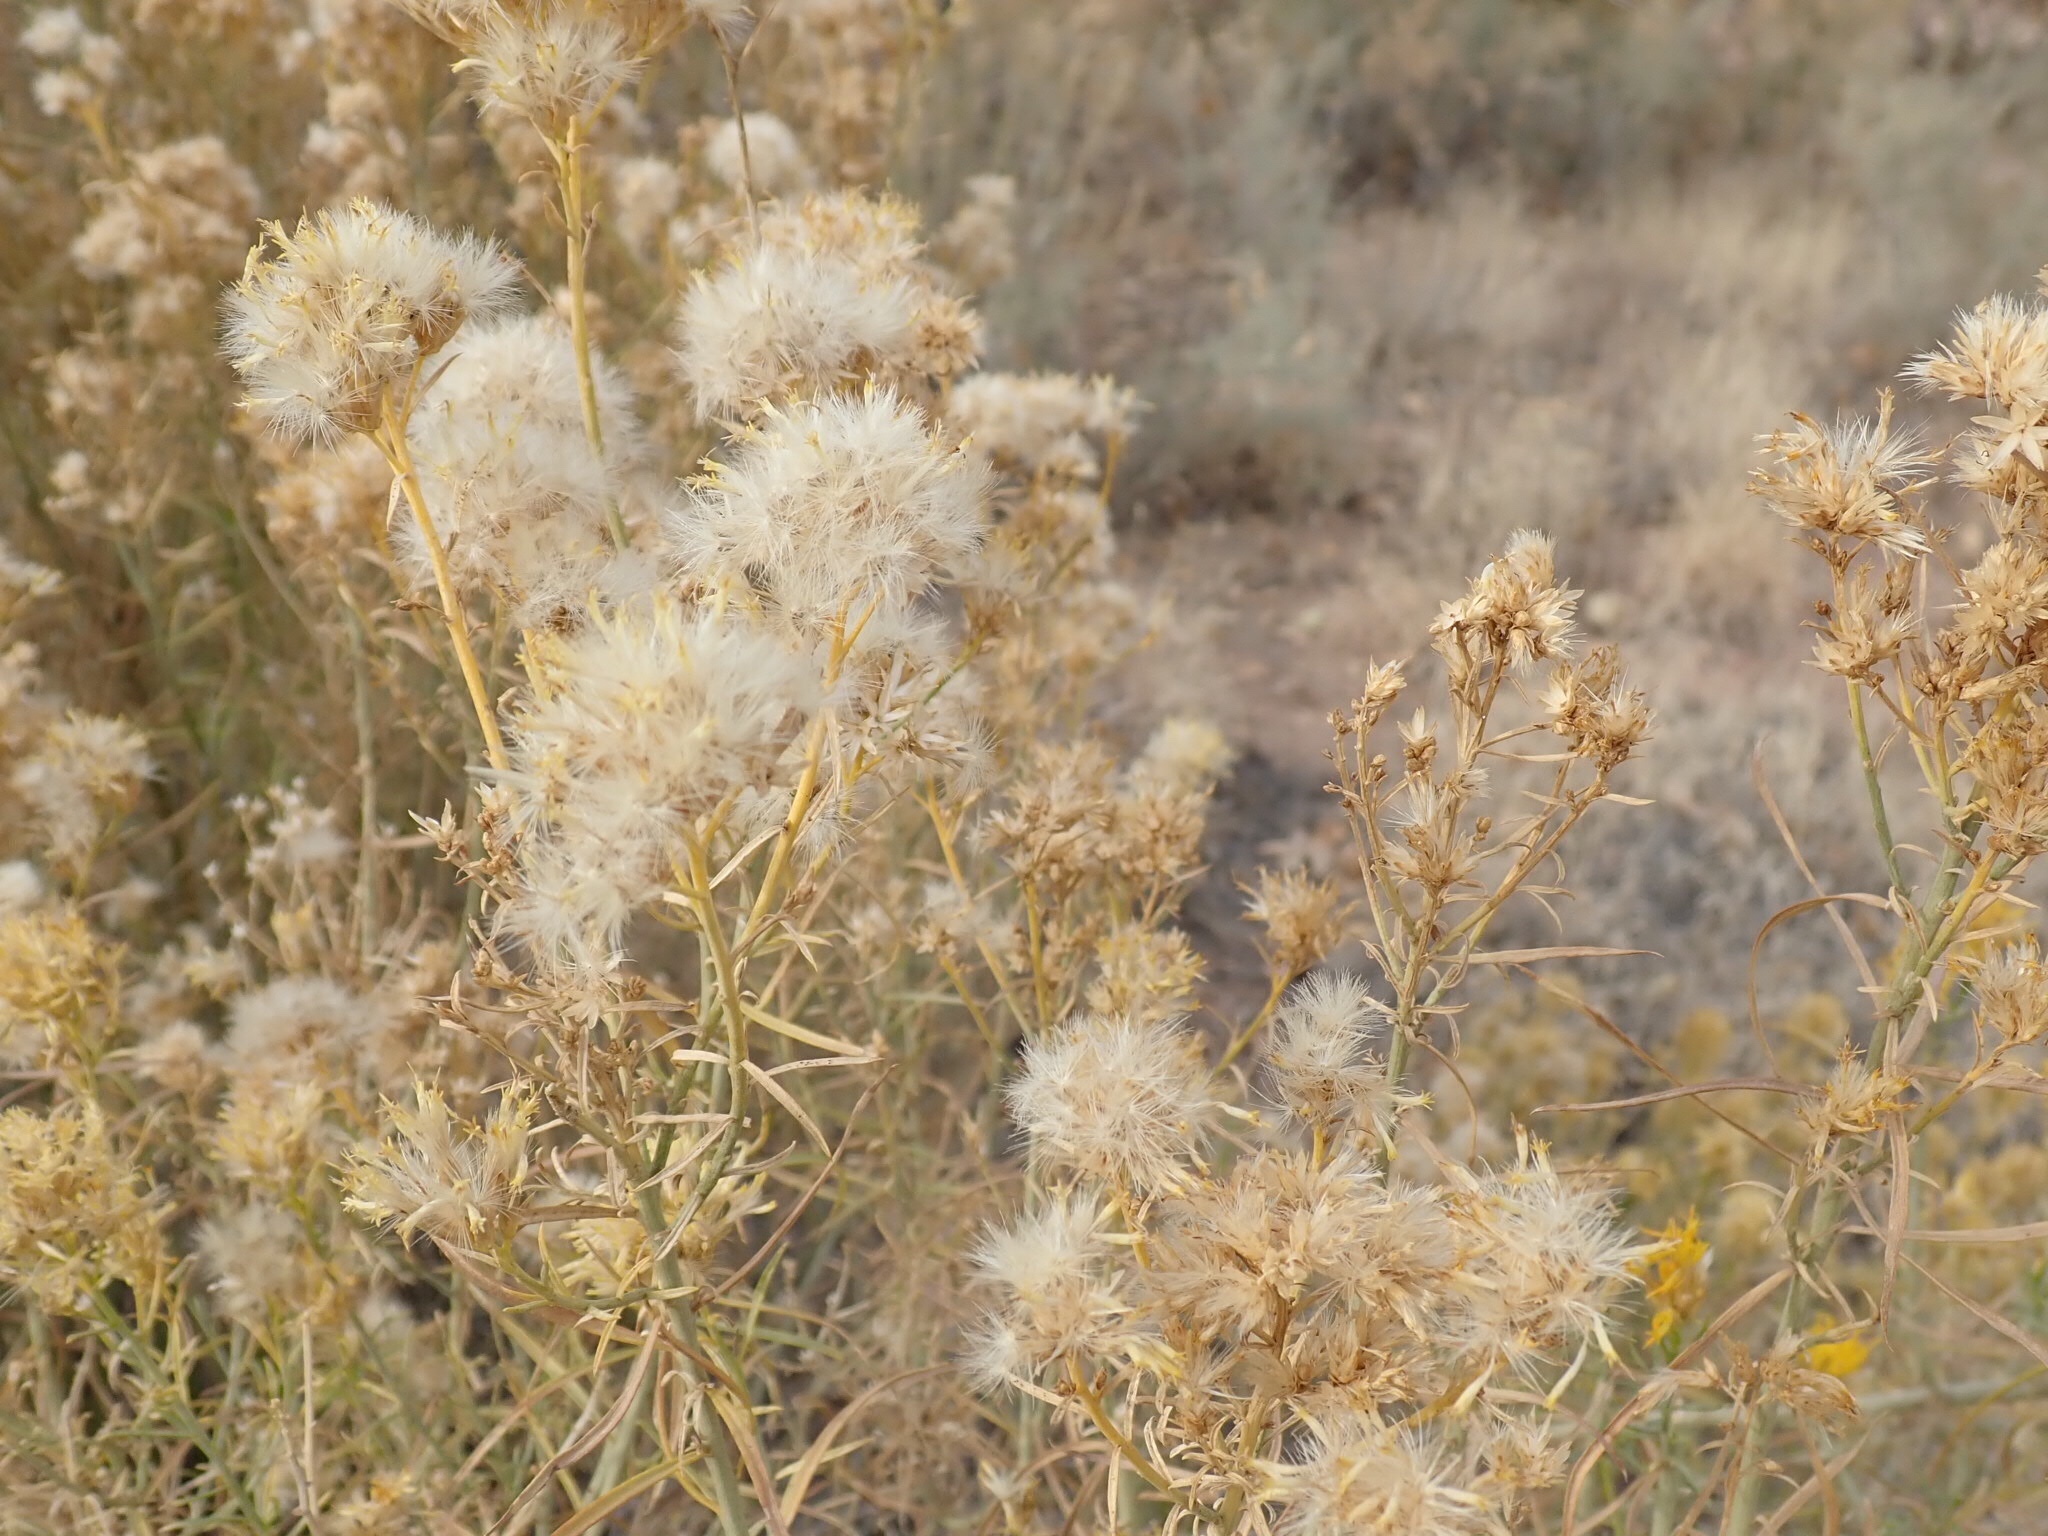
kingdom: Plantae
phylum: Tracheophyta
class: Magnoliopsida
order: Asterales
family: Asteraceae
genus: Ericameria
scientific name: Ericameria nauseosa
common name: Rubber rabbitbrush
